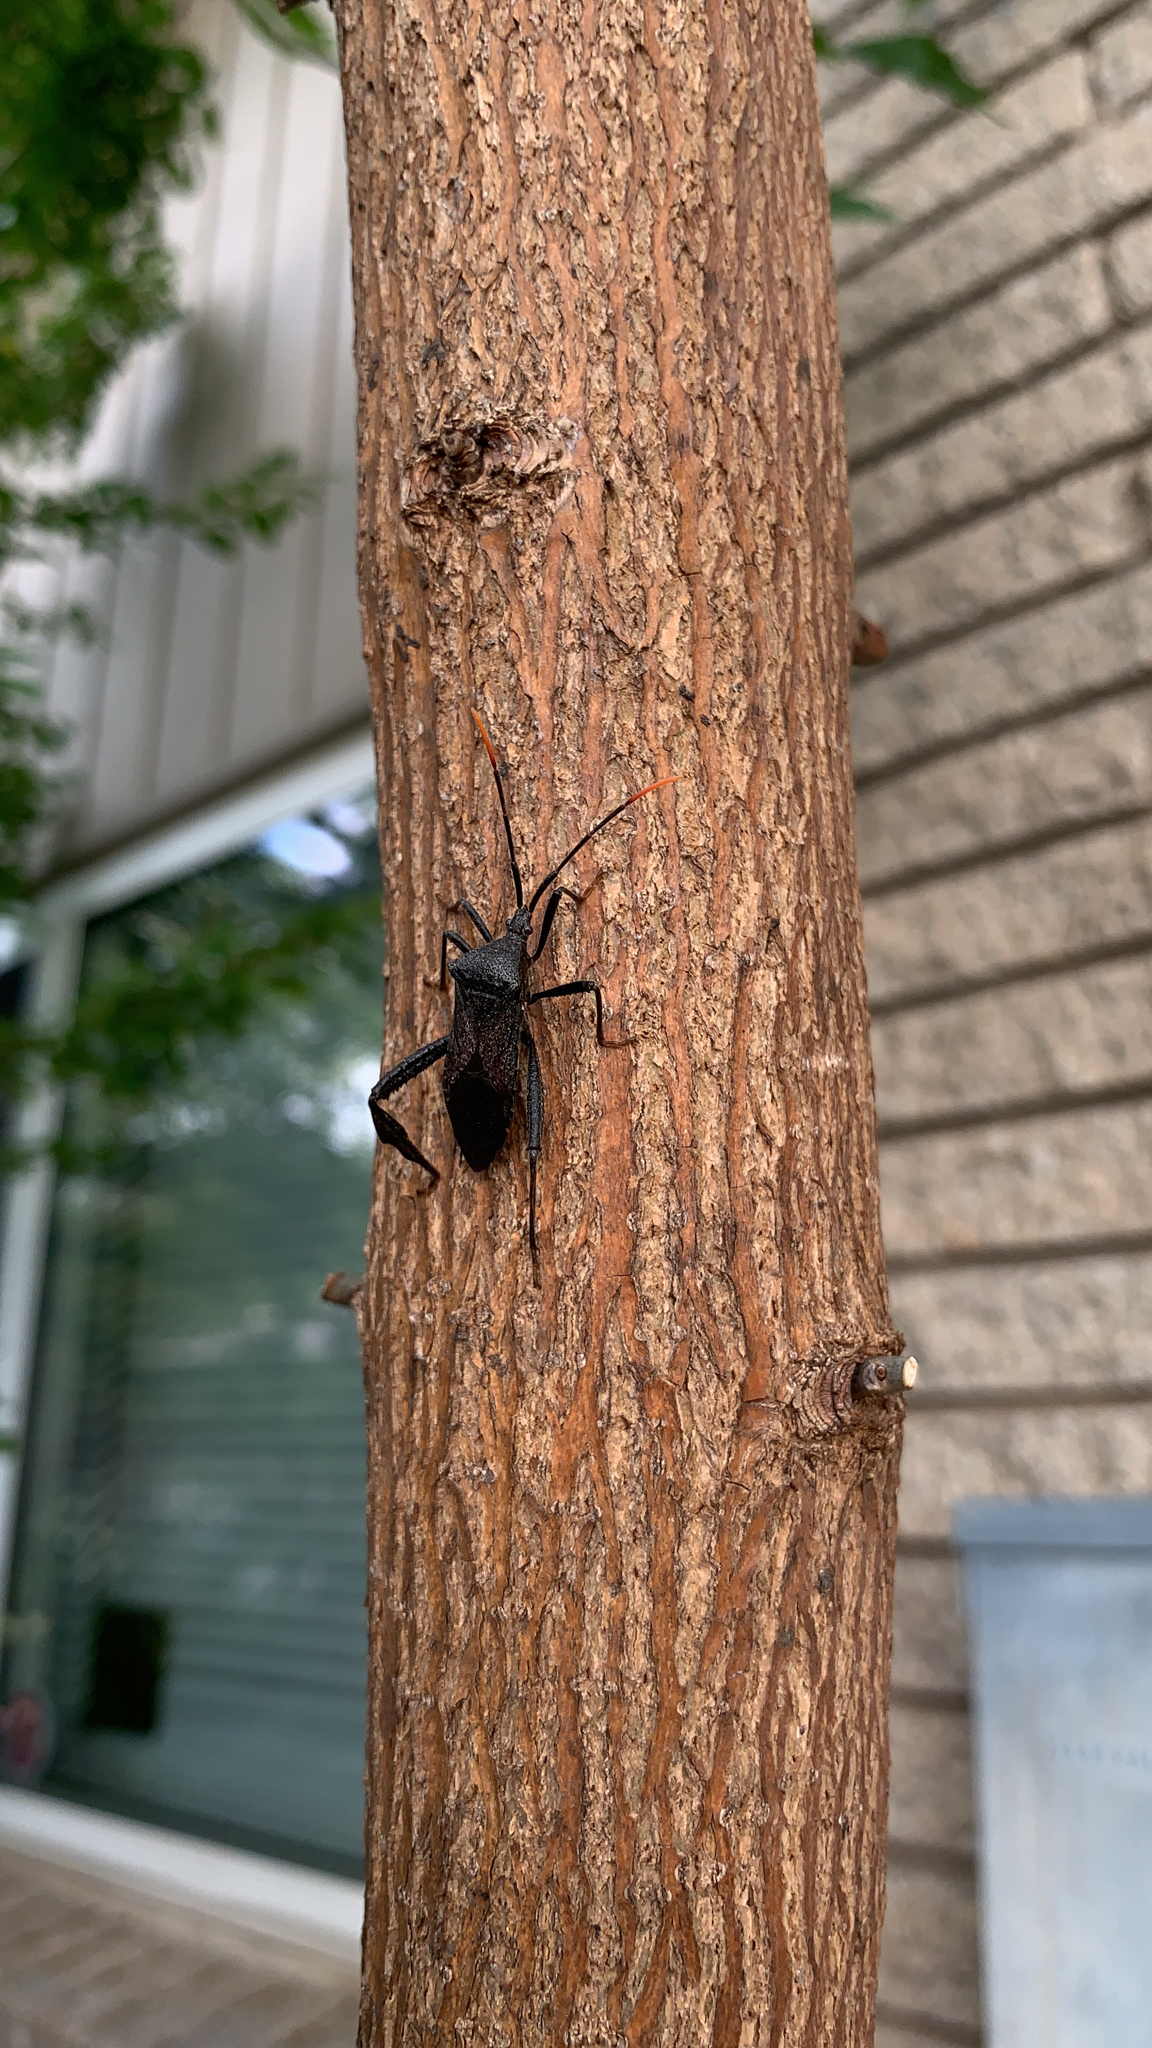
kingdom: Animalia
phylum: Arthropoda
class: Insecta
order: Hemiptera
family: Coreidae
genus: Acanthocephala
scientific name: Acanthocephala terminalis
